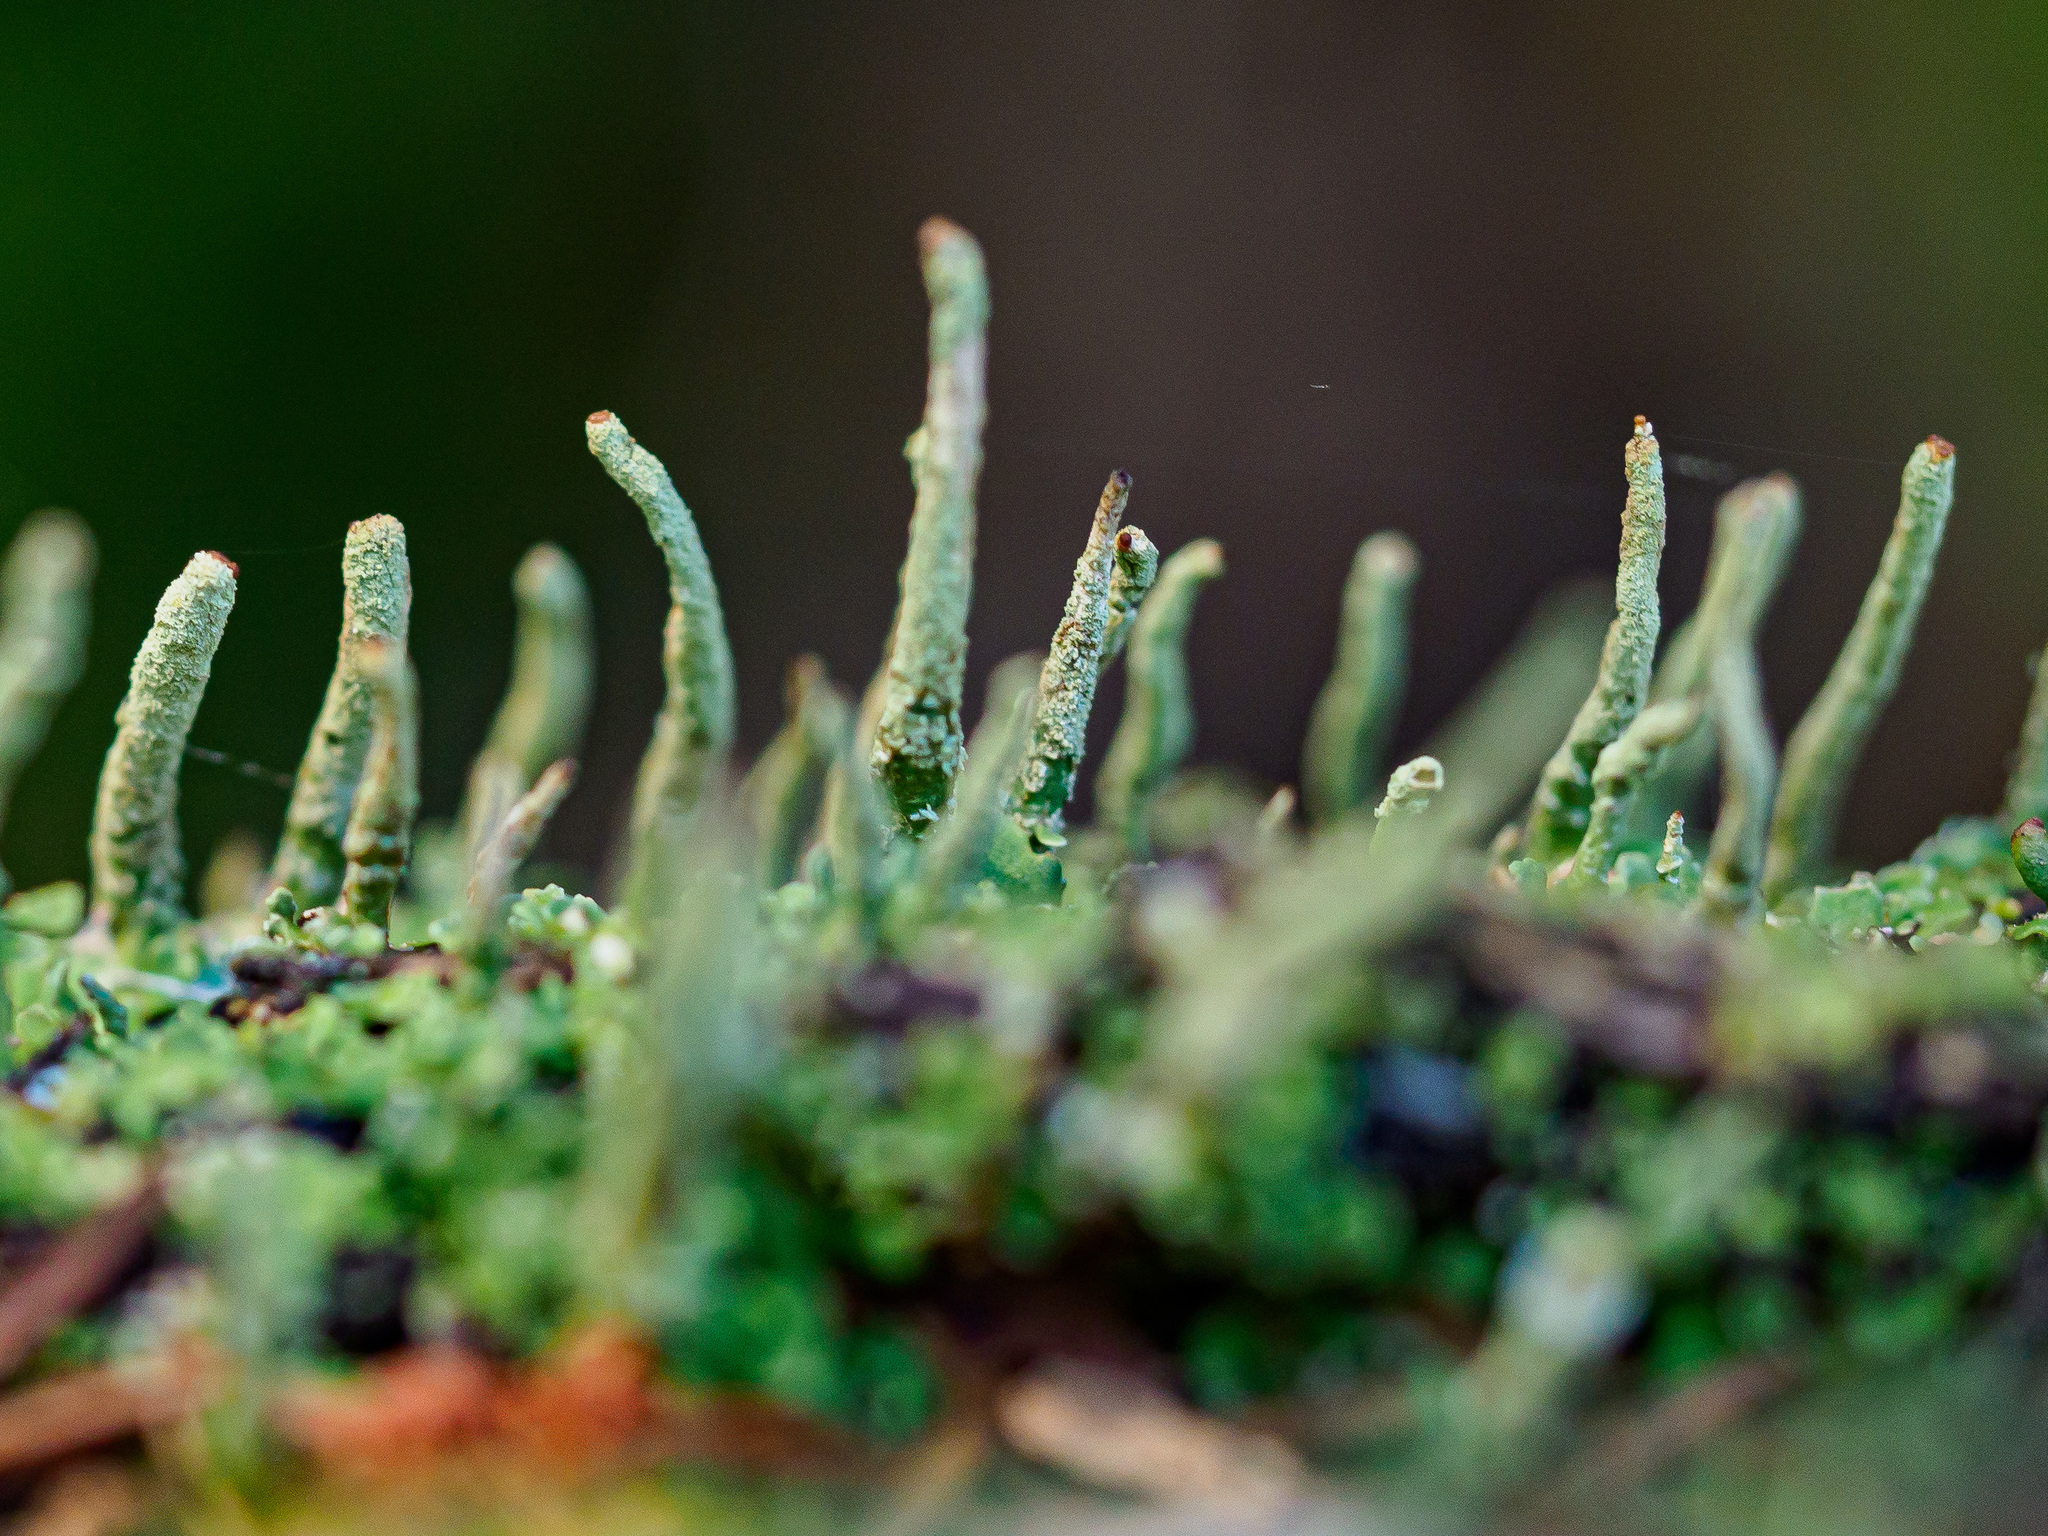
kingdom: Fungi
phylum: Ascomycota
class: Lecanoromycetes
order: Lecanorales
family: Cladoniaceae
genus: Cladonia
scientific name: Cladonia coniocraea
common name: Common powderhorn
